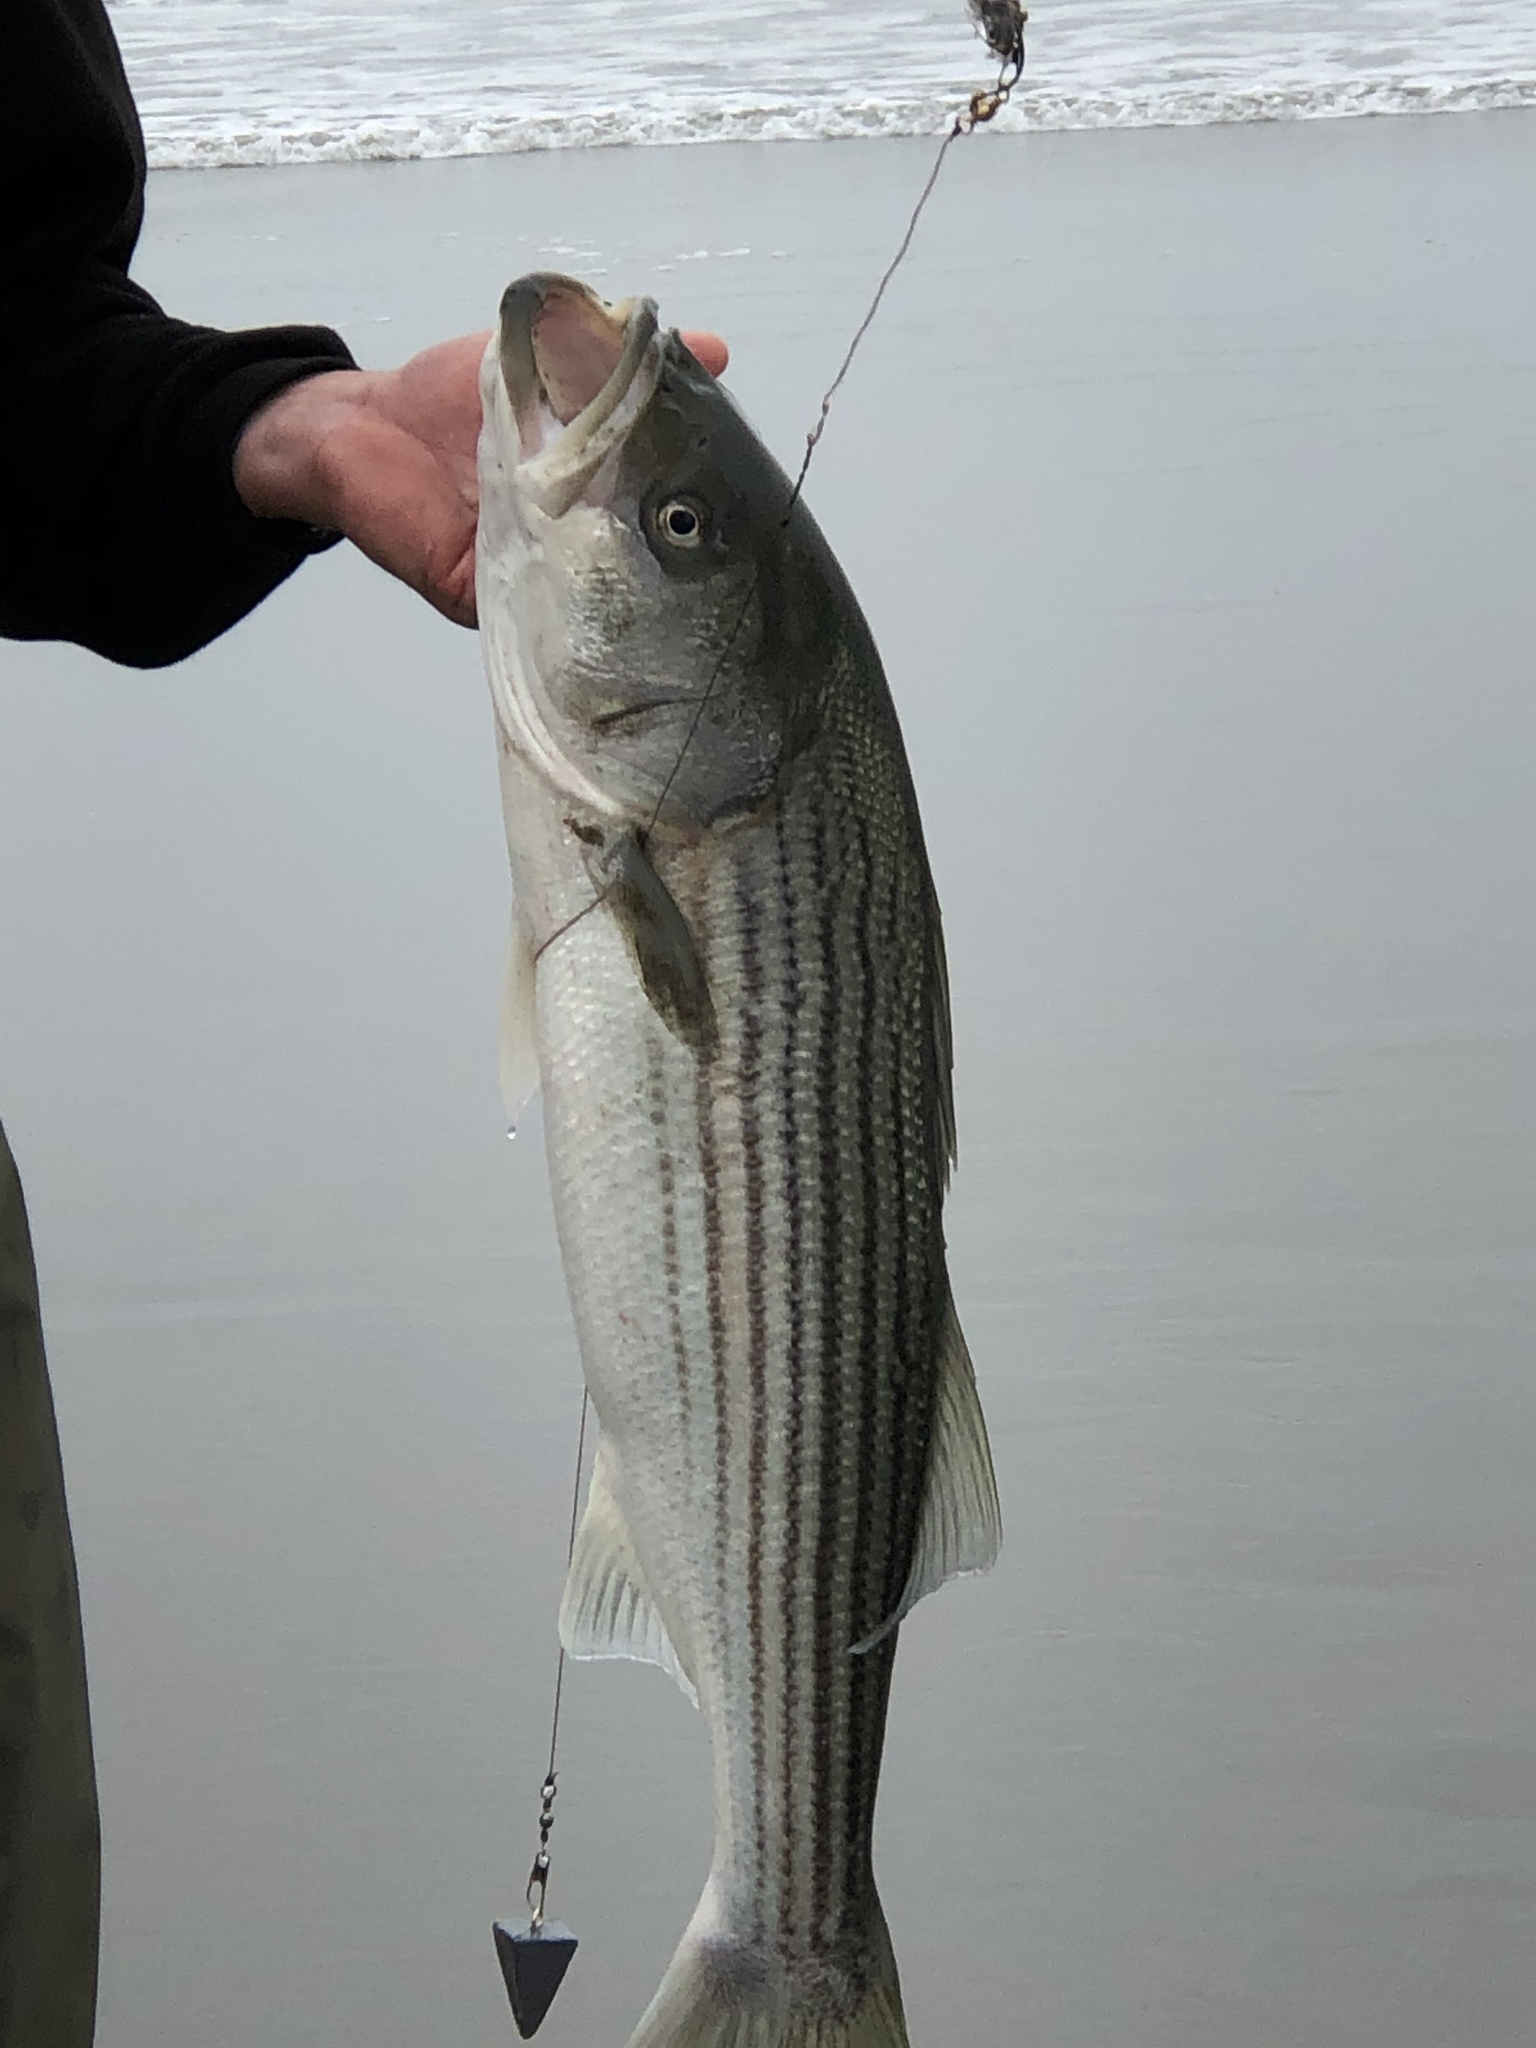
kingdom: Animalia
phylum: Chordata
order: Perciformes
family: Moronidae
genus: Morone
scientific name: Morone saxatilis
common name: Striped bass
